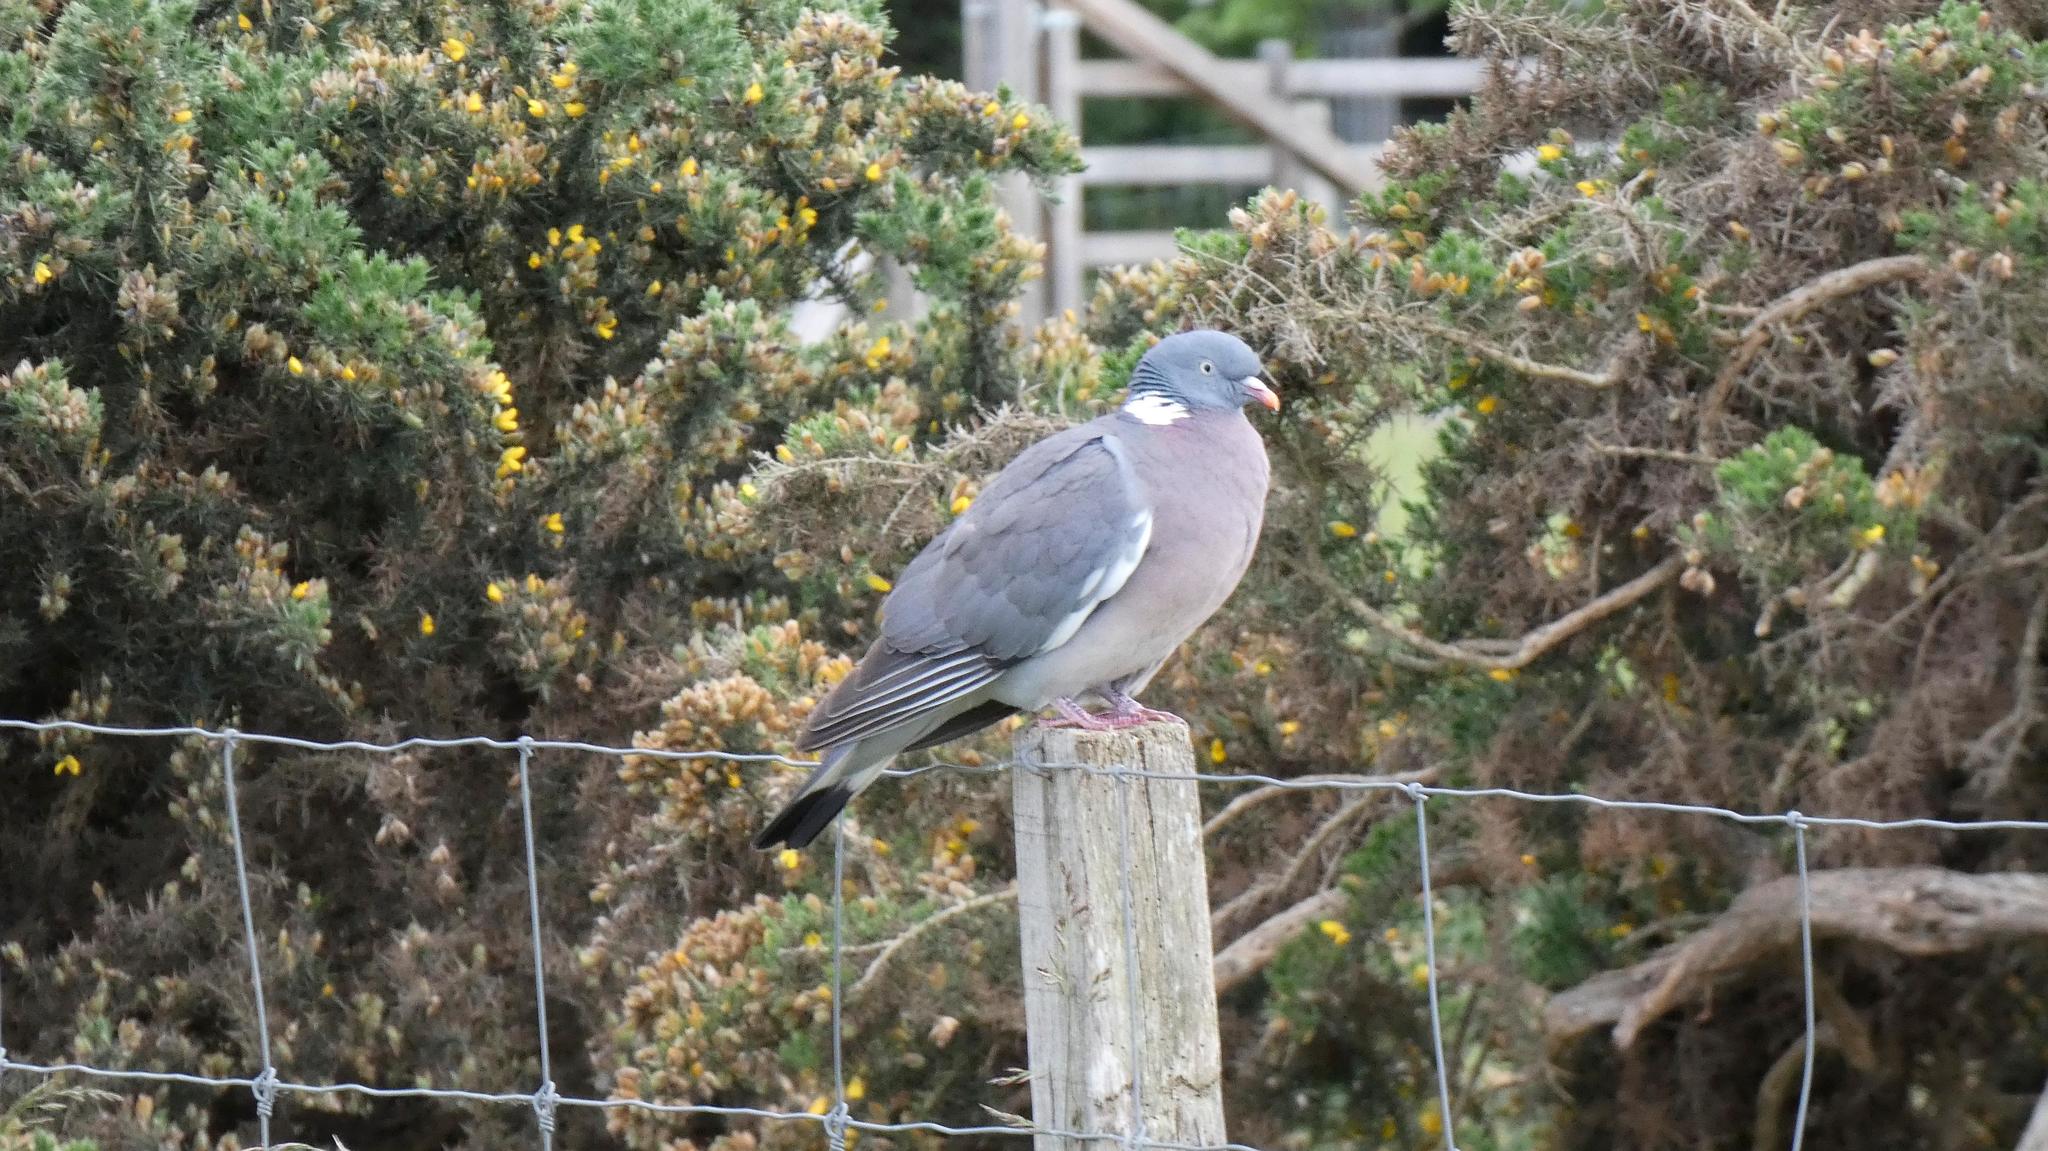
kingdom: Animalia
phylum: Chordata
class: Aves
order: Columbiformes
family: Columbidae
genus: Columba
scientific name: Columba palumbus
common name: Common wood pigeon
